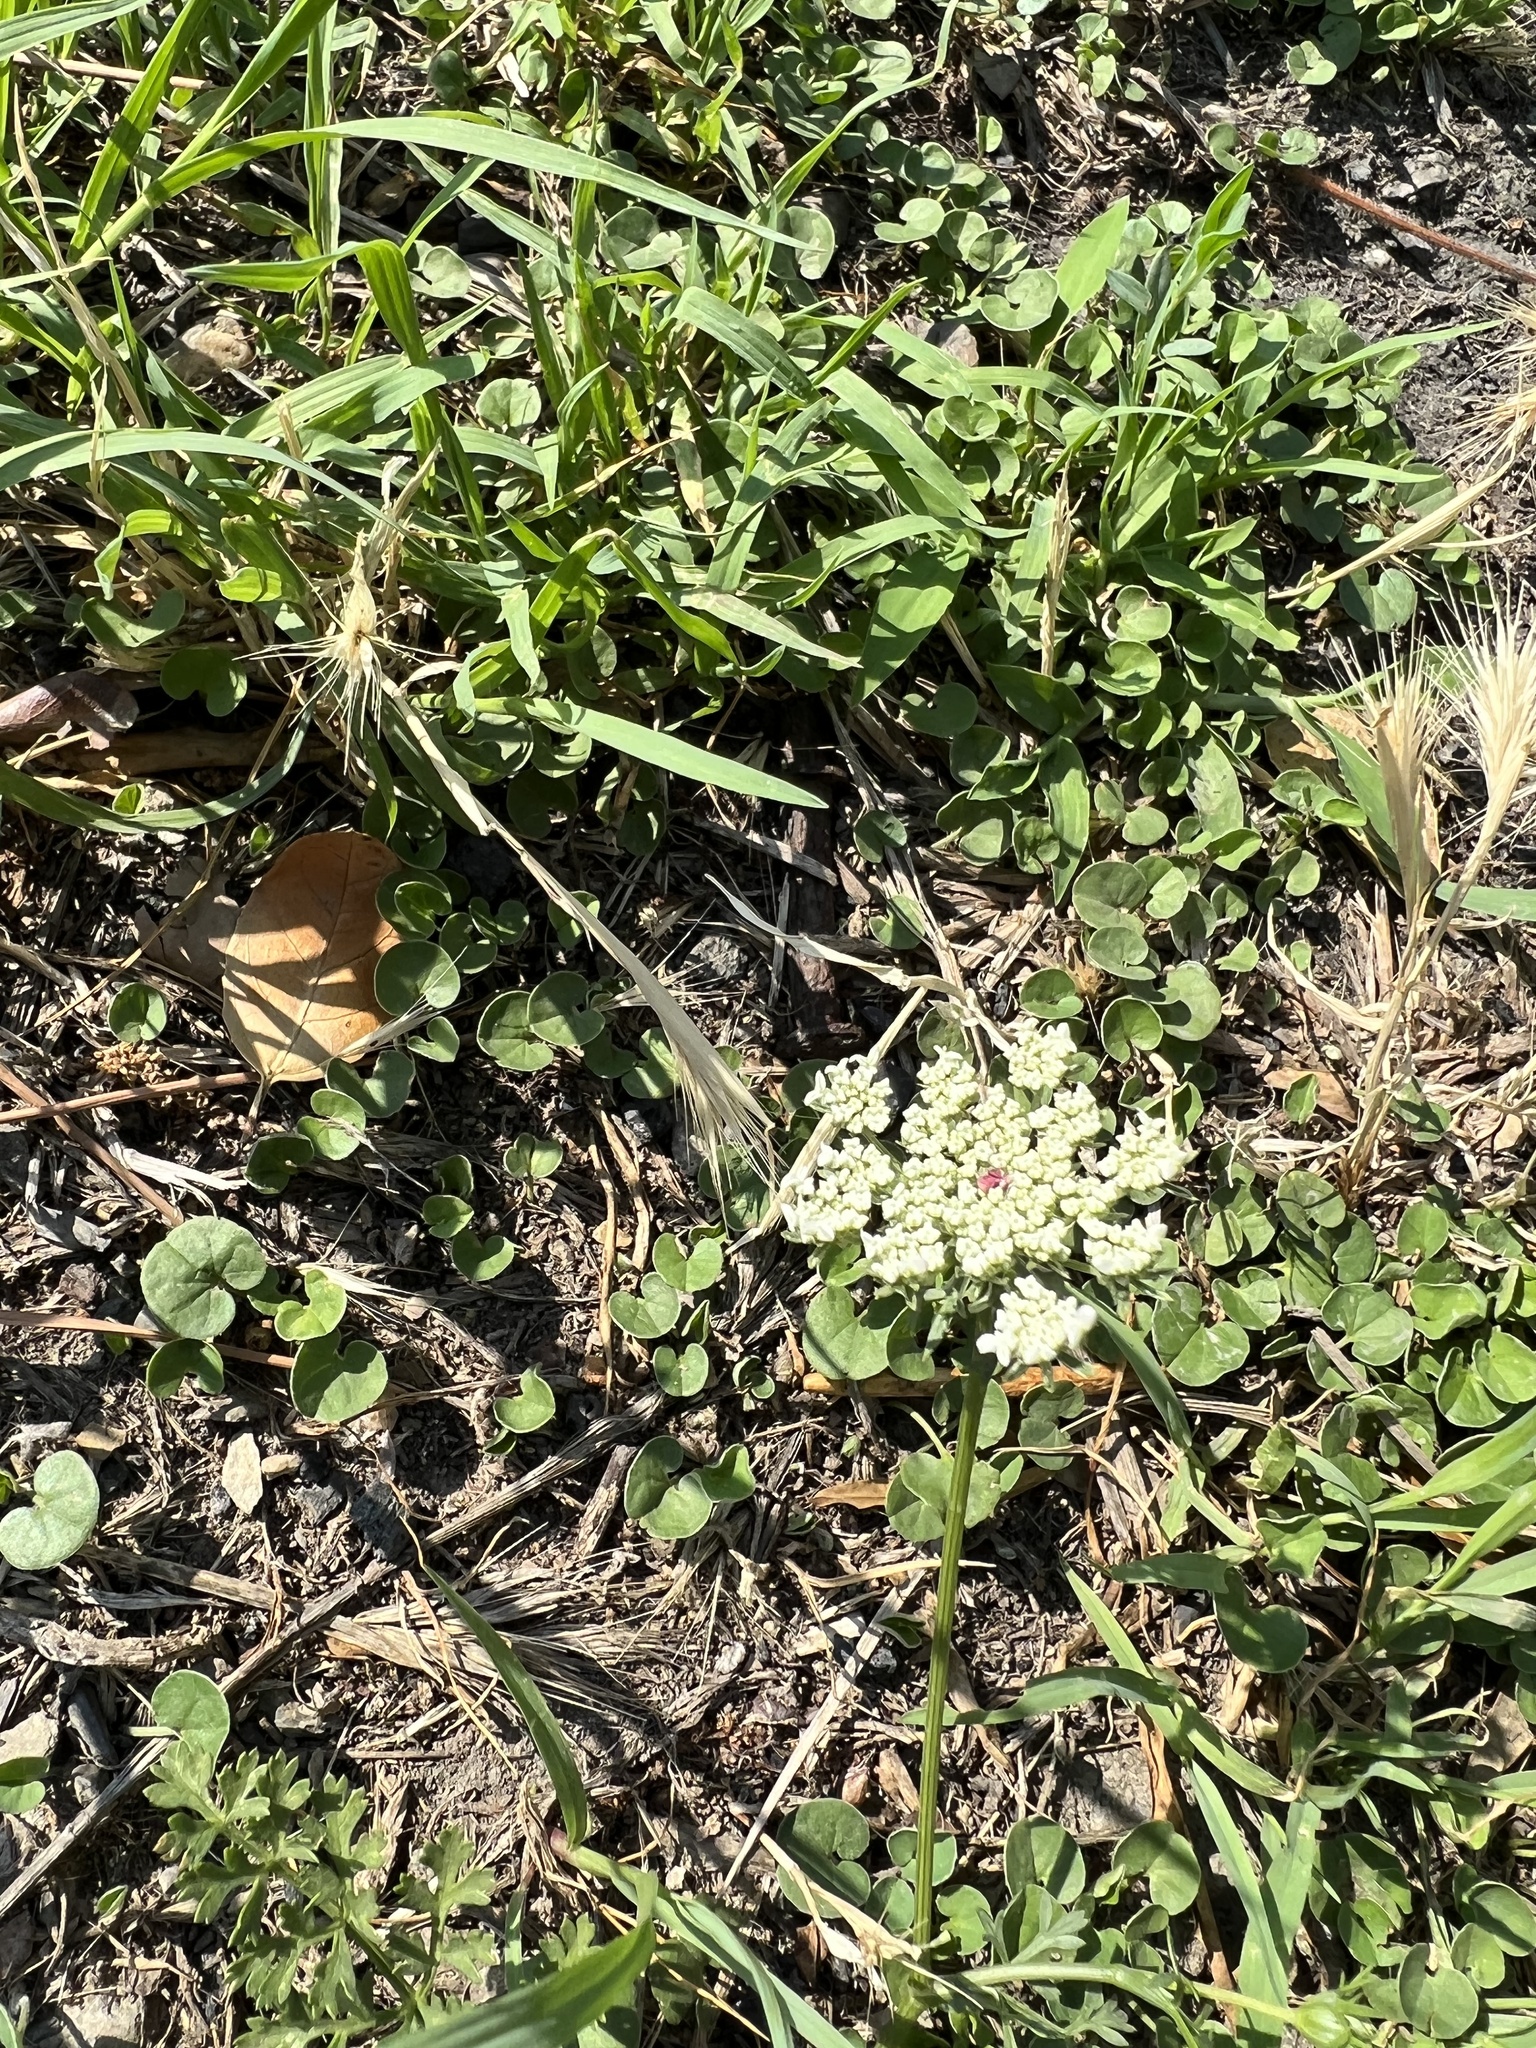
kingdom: Plantae
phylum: Tracheophyta
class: Magnoliopsida
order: Apiales
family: Apiaceae
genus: Daucus
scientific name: Daucus carota
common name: Wild carrot
